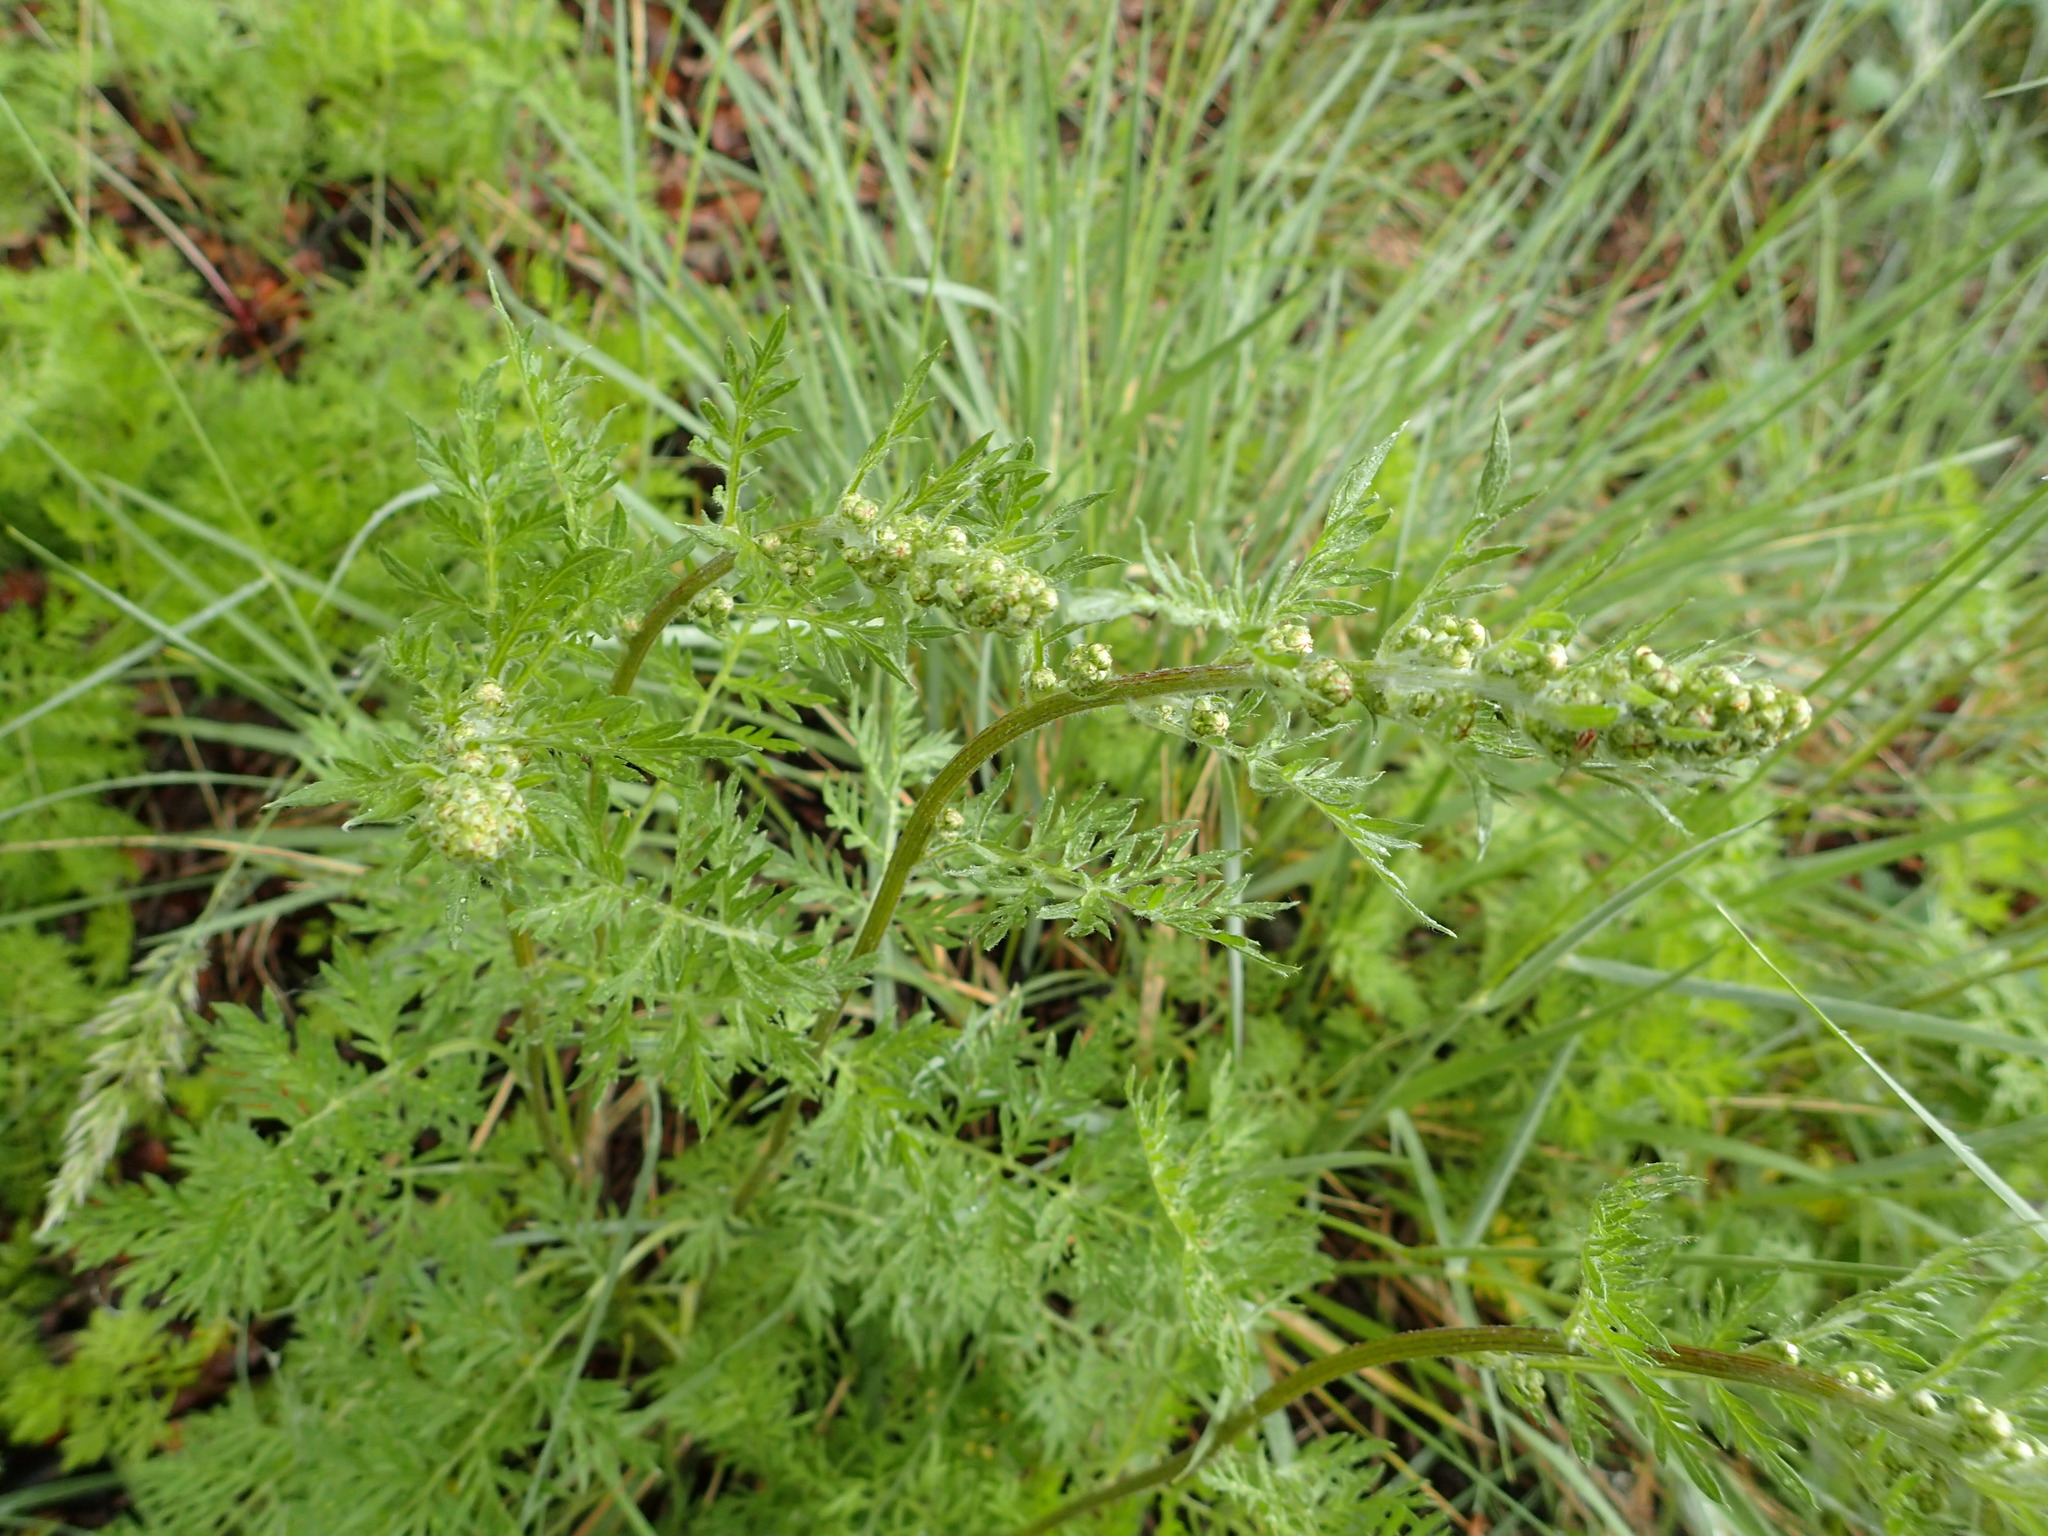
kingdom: Plantae
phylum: Tracheophyta
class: Magnoliopsida
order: Asterales
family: Asteraceae
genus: Artemisia
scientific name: Artemisia laciniata
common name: Siberian wormwood
